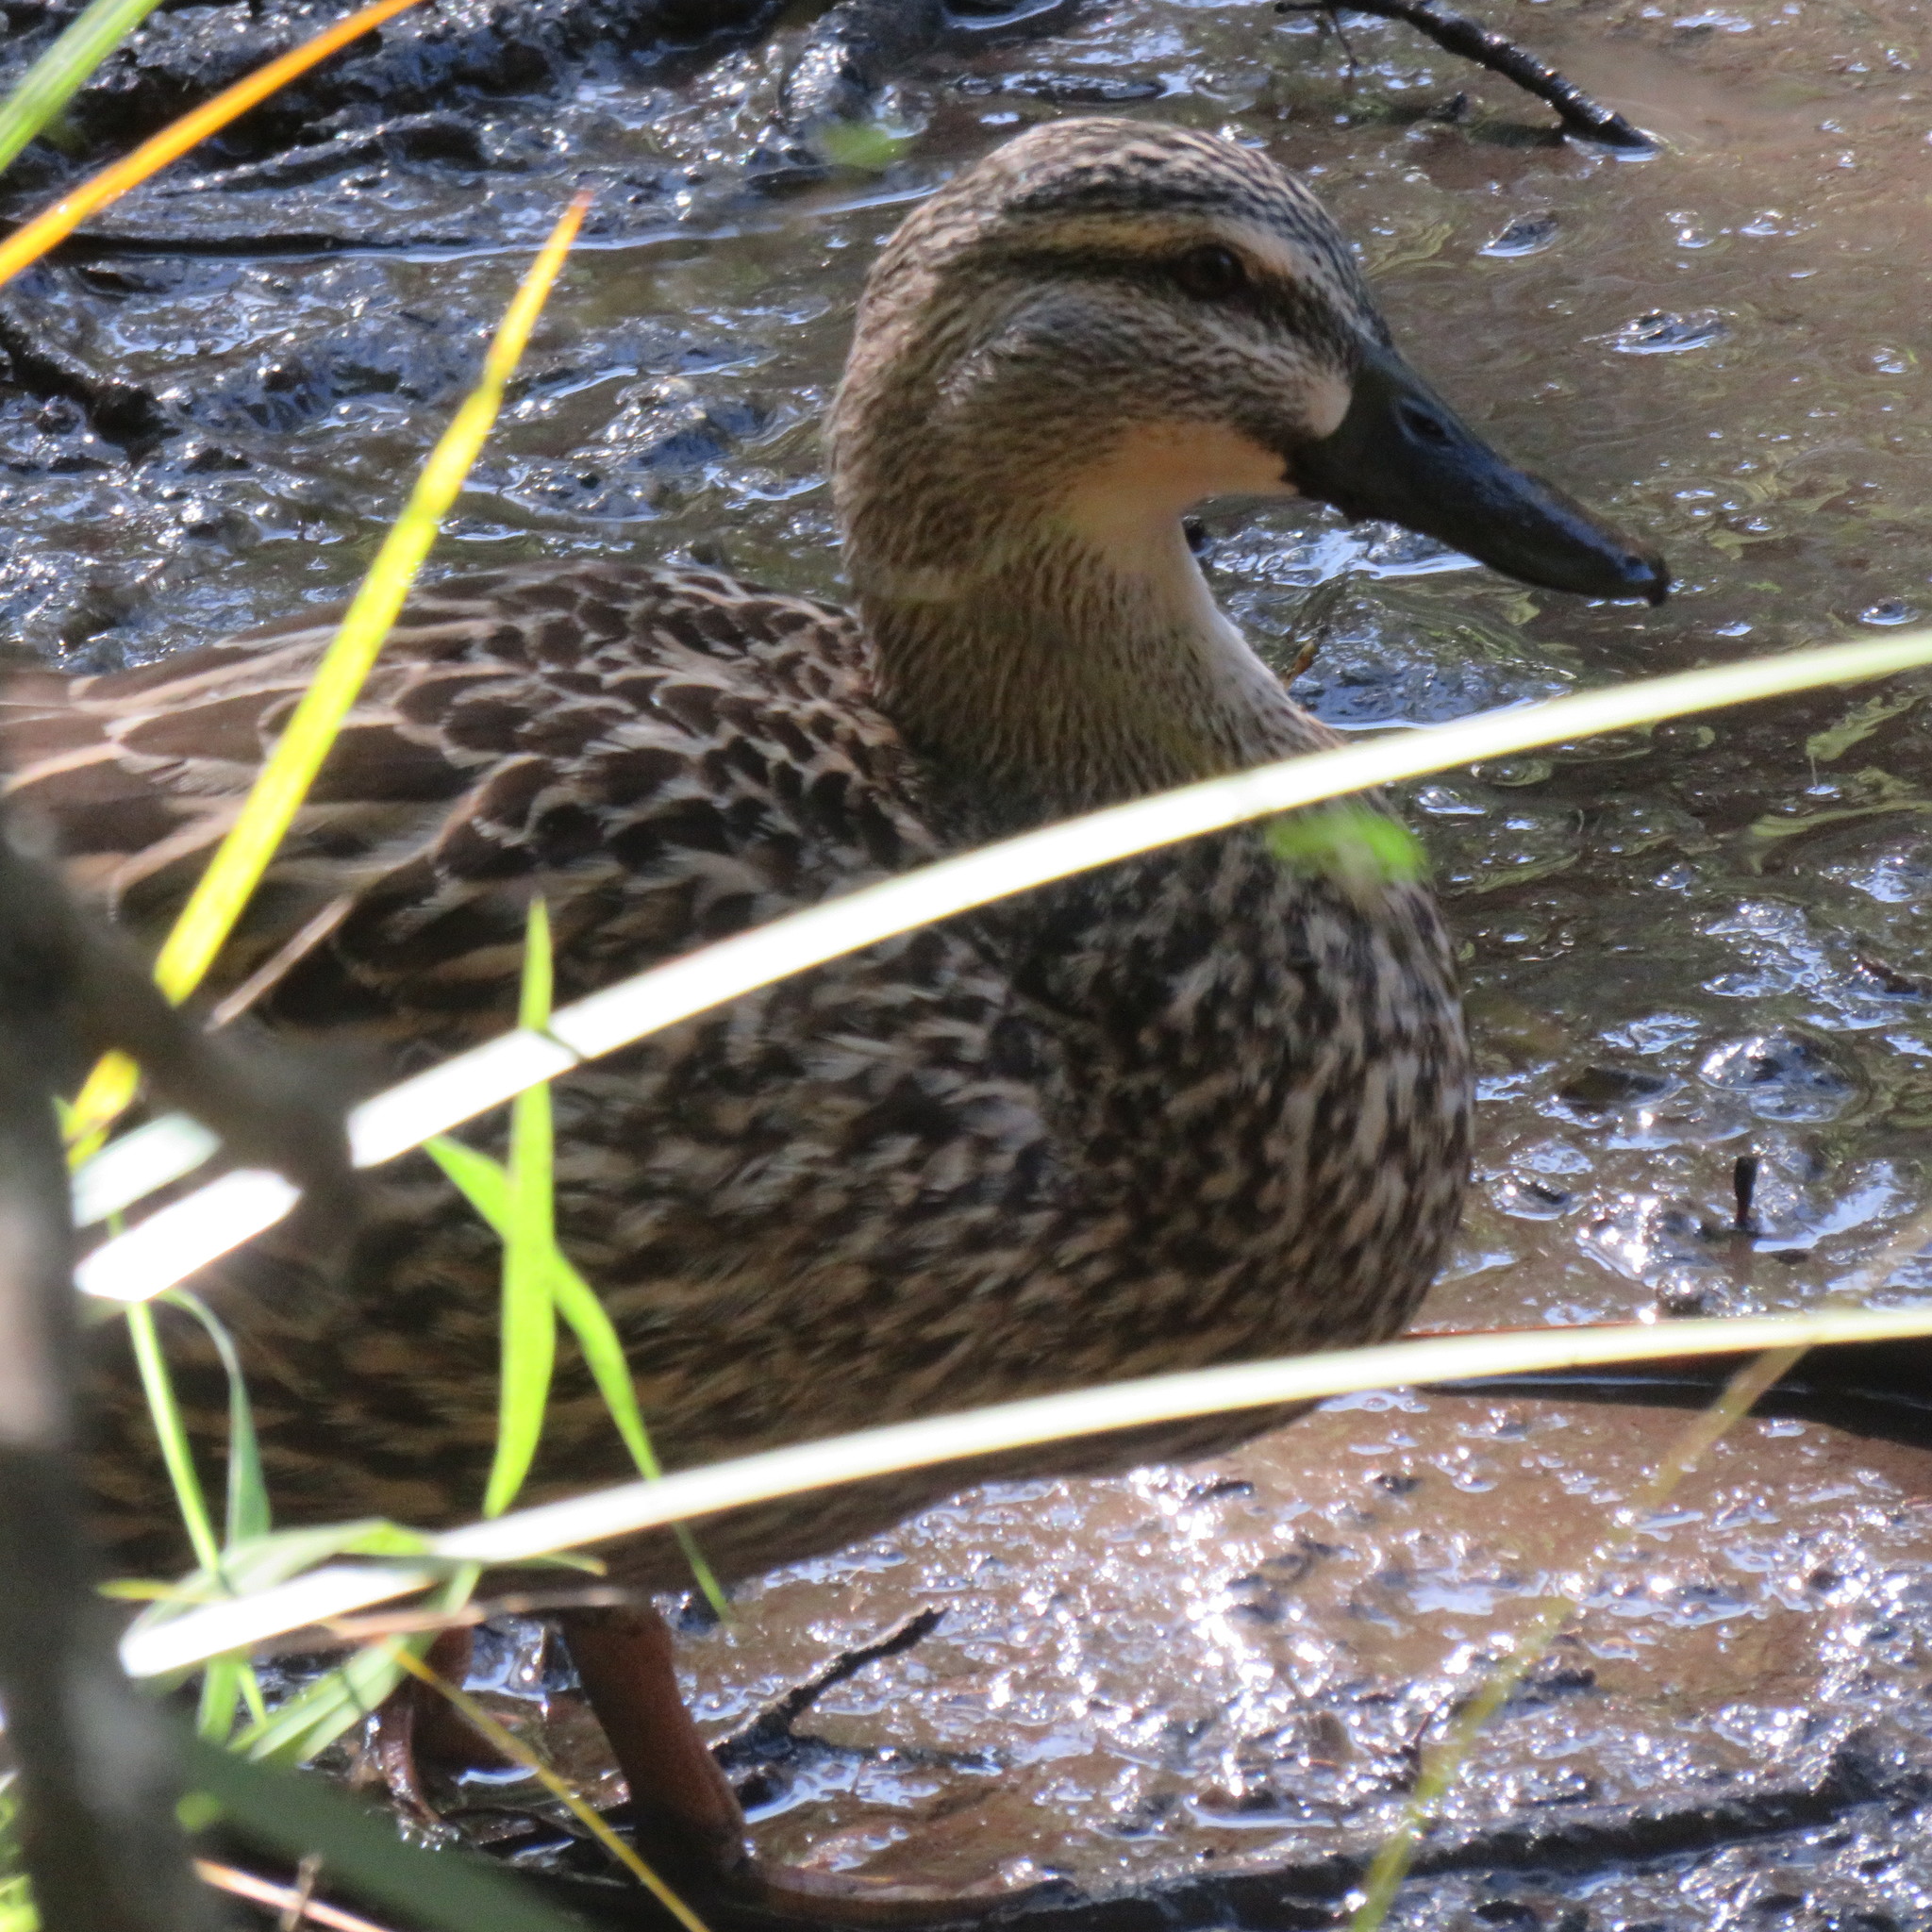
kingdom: Animalia
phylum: Chordata
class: Aves
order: Anseriformes
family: Anatidae
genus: Anas
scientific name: Anas
